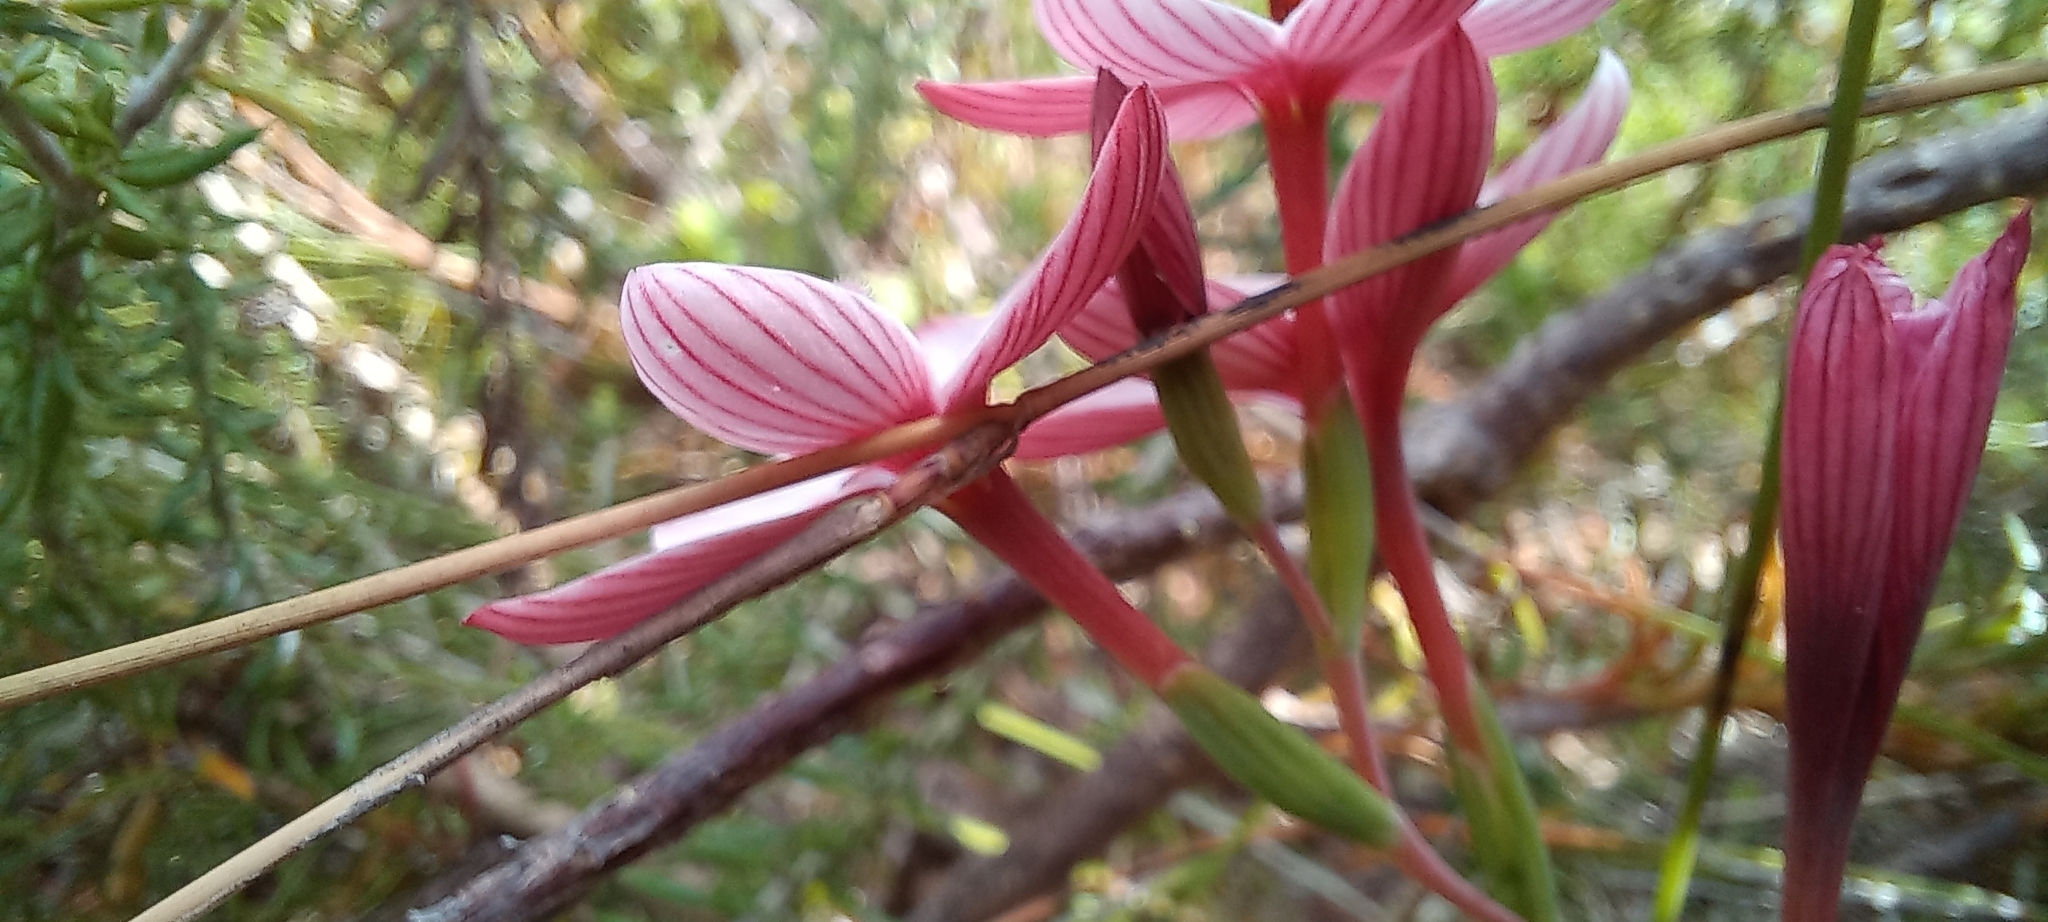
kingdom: Plantae
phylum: Tracheophyta
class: Liliopsida
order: Asparagales
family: Iridaceae
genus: Geissorhiza
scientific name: Geissorhiza ovata
